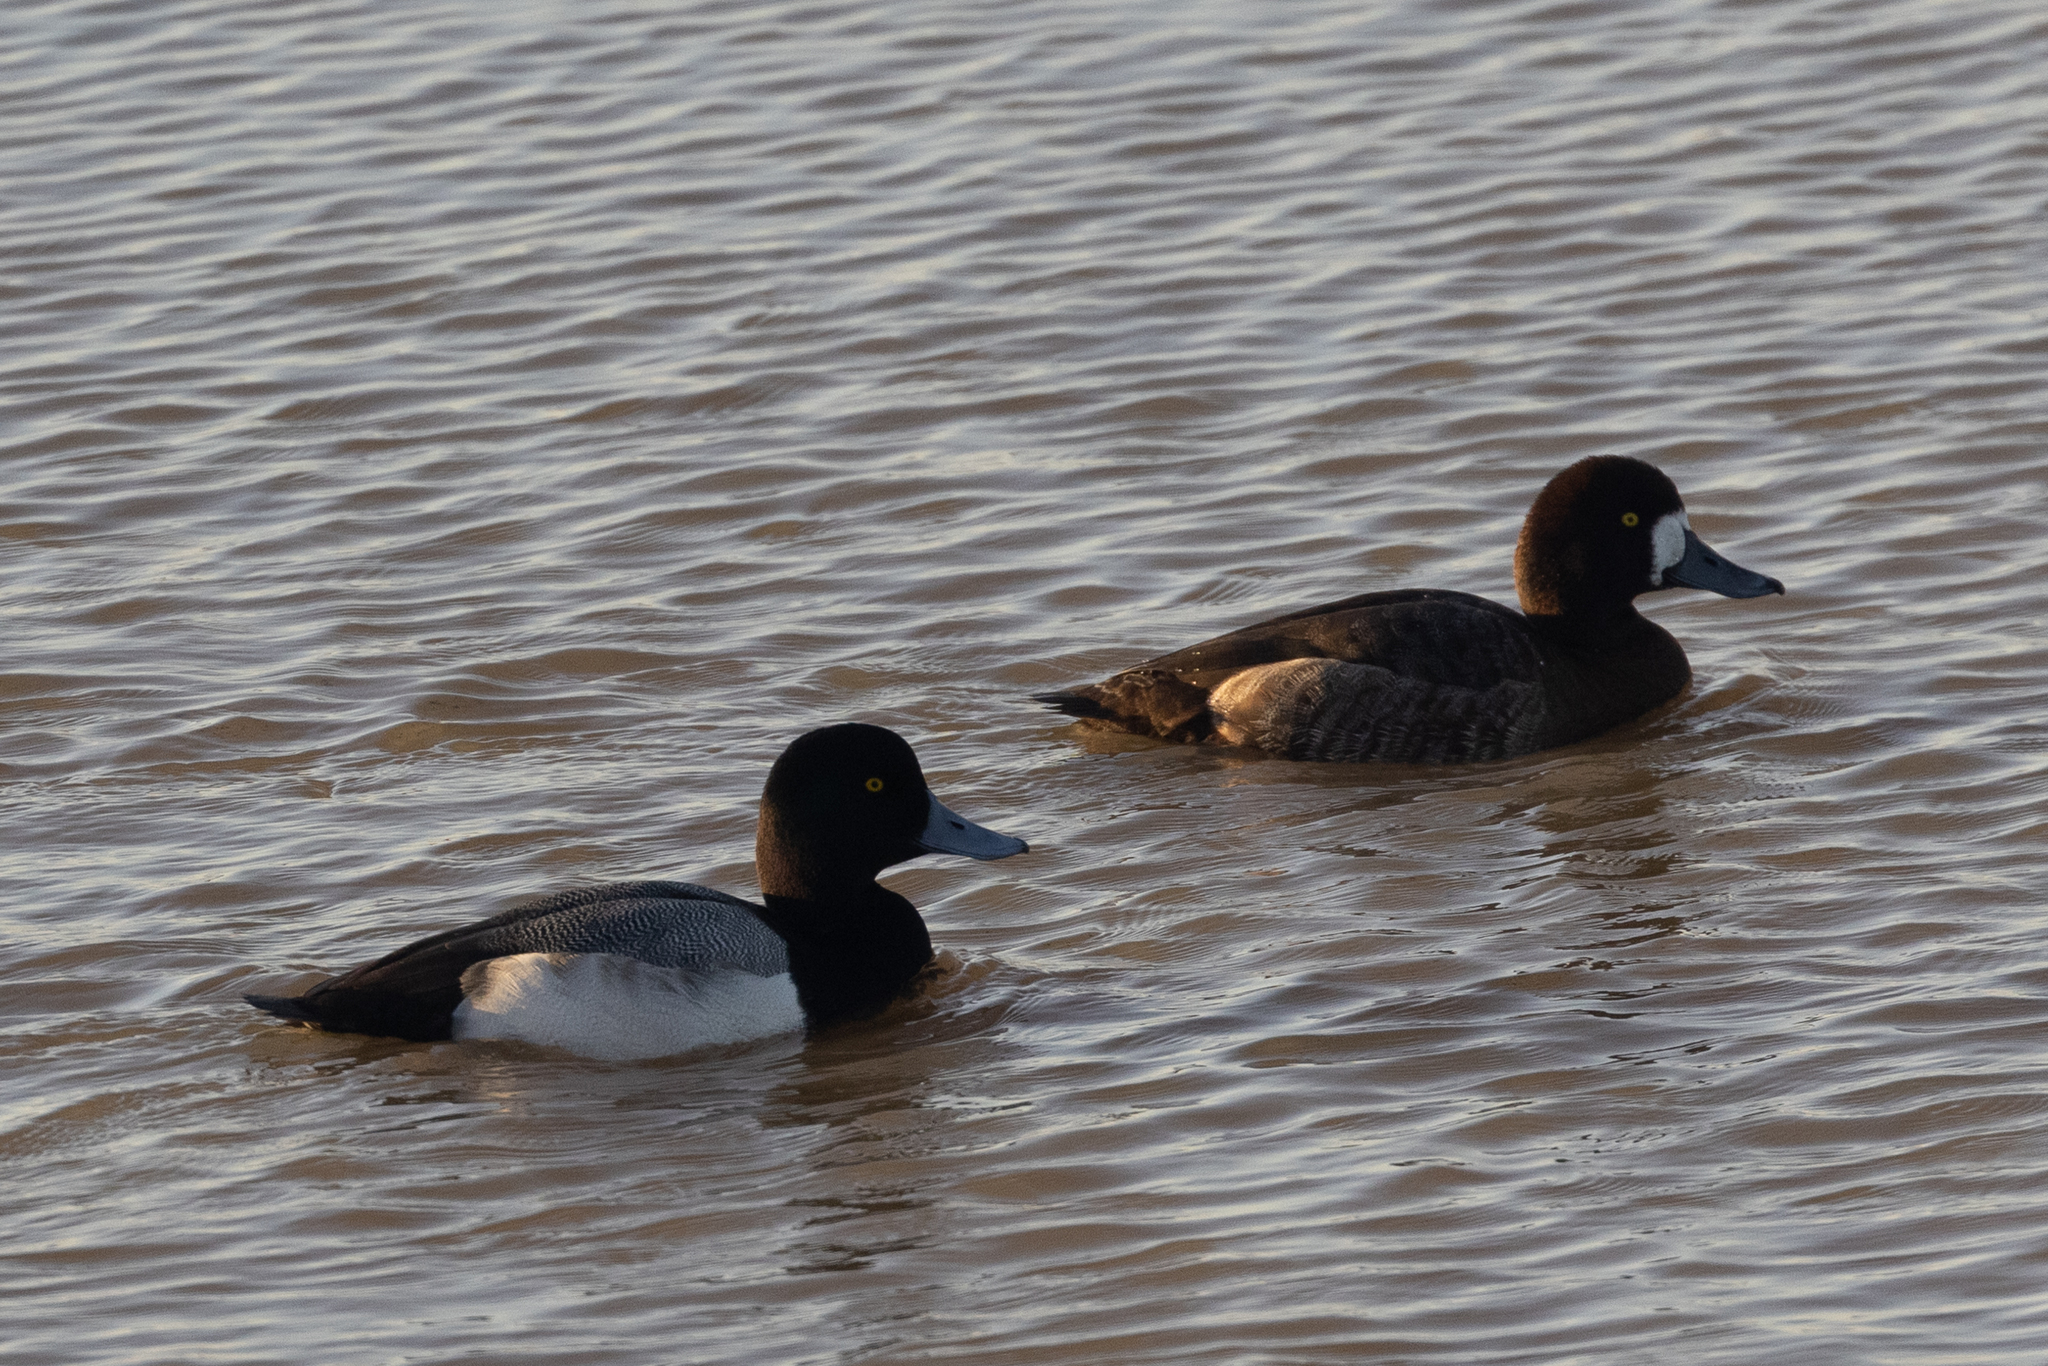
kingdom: Animalia
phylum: Chordata
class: Aves
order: Anseriformes
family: Anatidae
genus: Aythya
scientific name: Aythya marila
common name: Greater scaup
